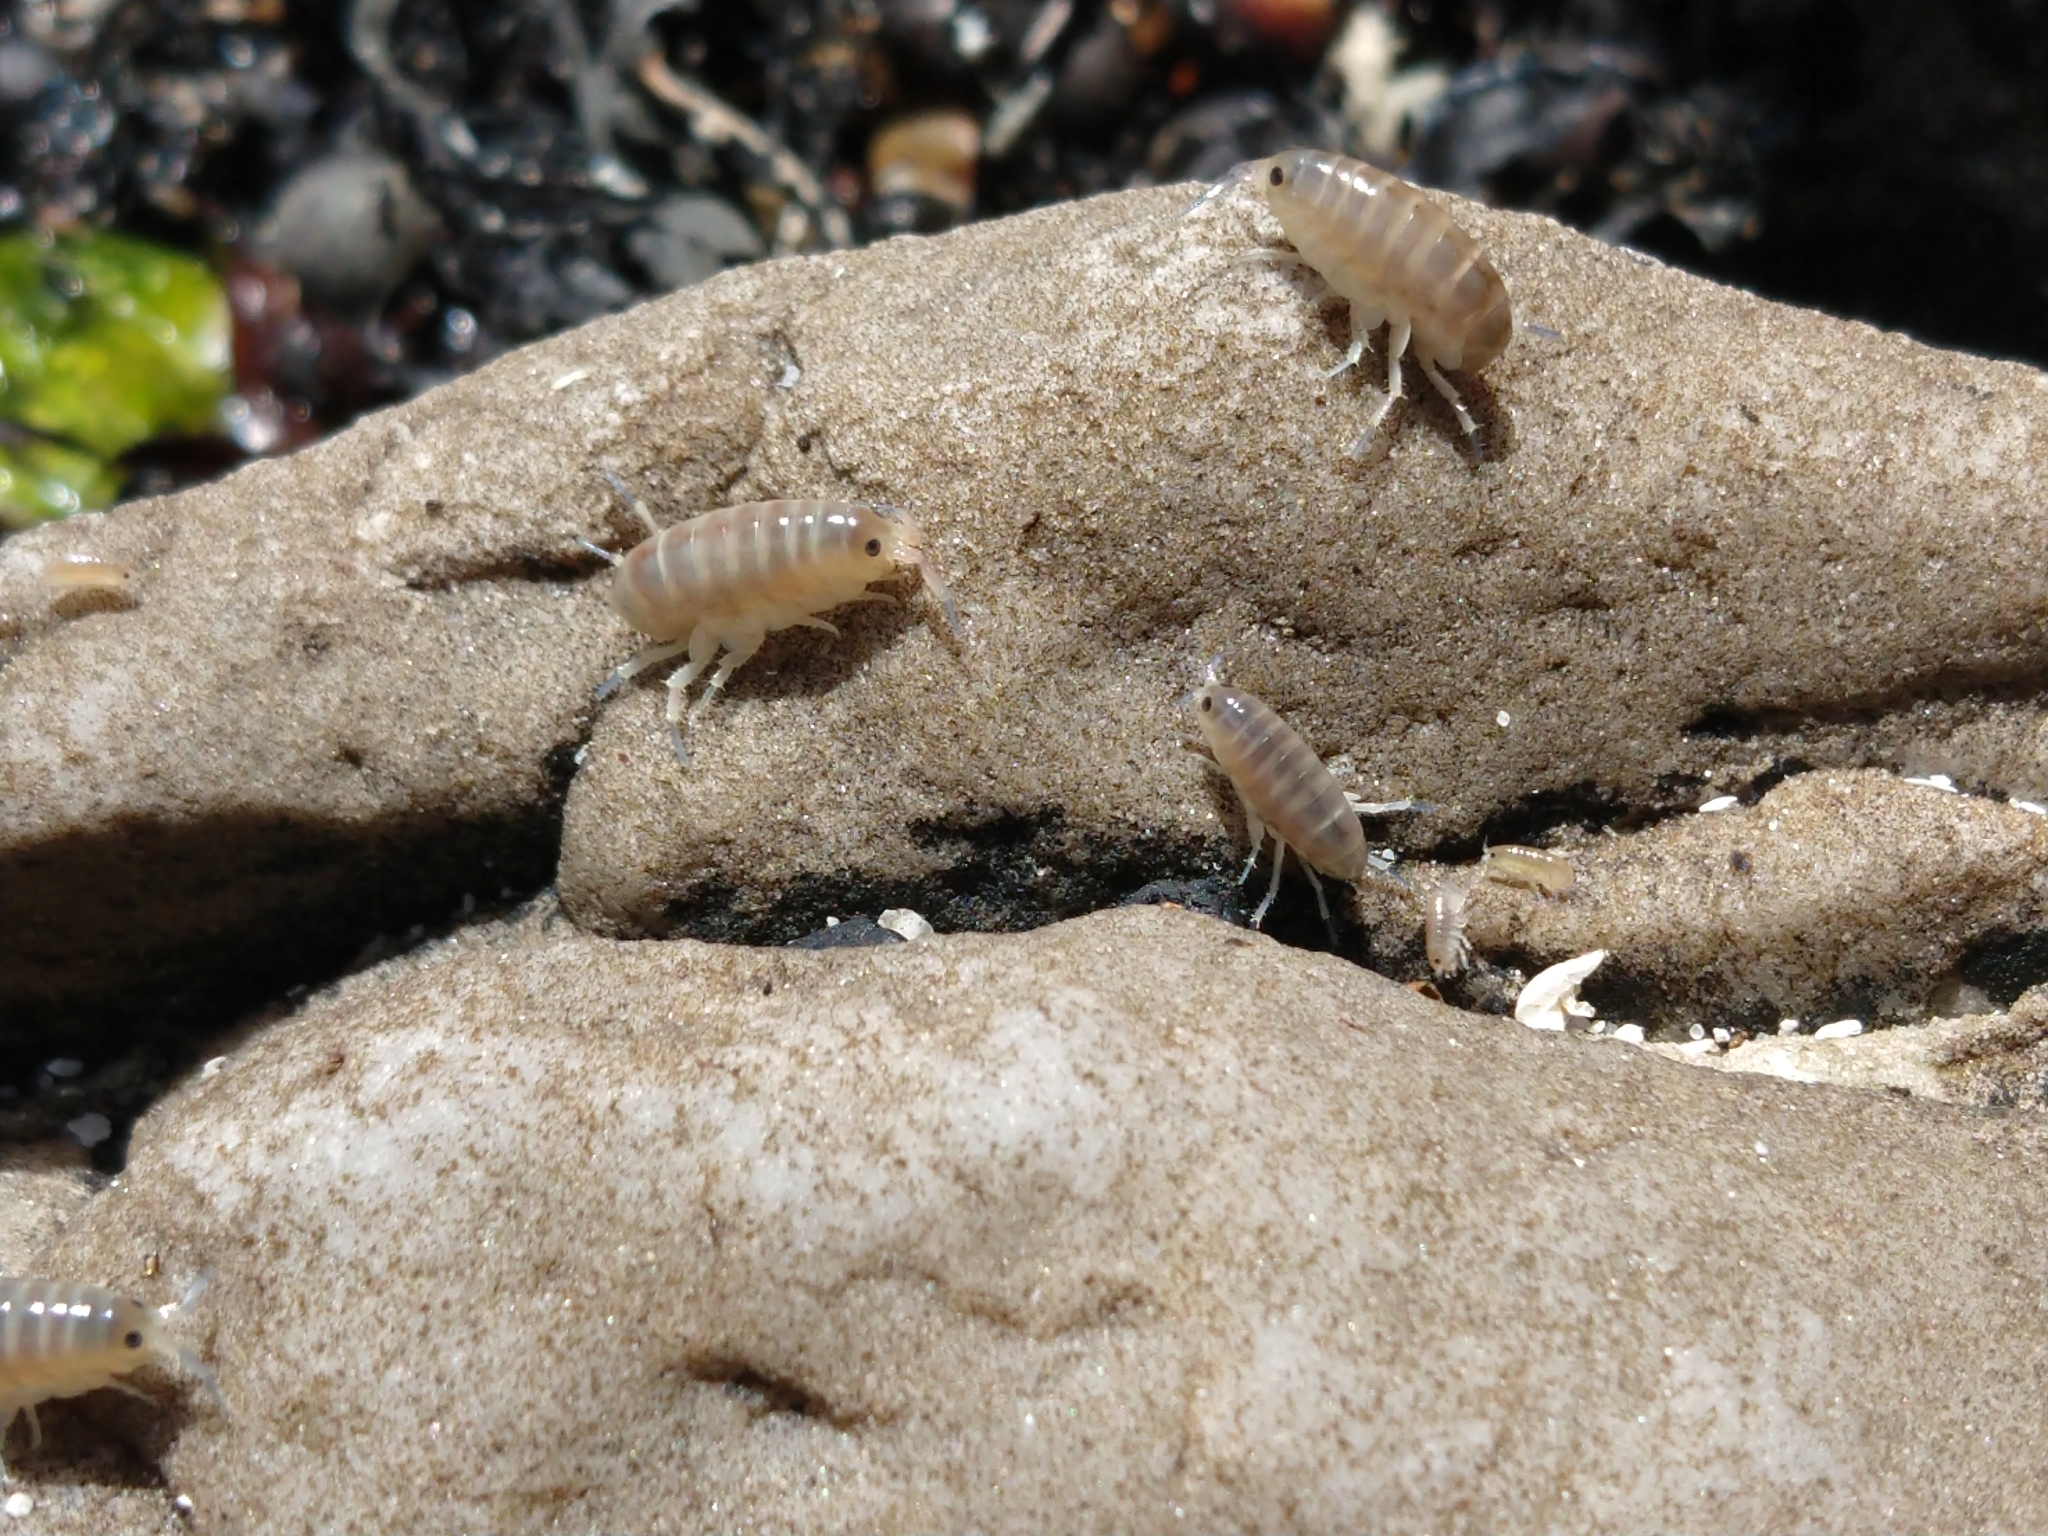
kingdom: Animalia
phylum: Arthropoda
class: Malacostraca
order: Amphipoda
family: Talitridae
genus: Capeorchestia
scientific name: Capeorchestia capensis
